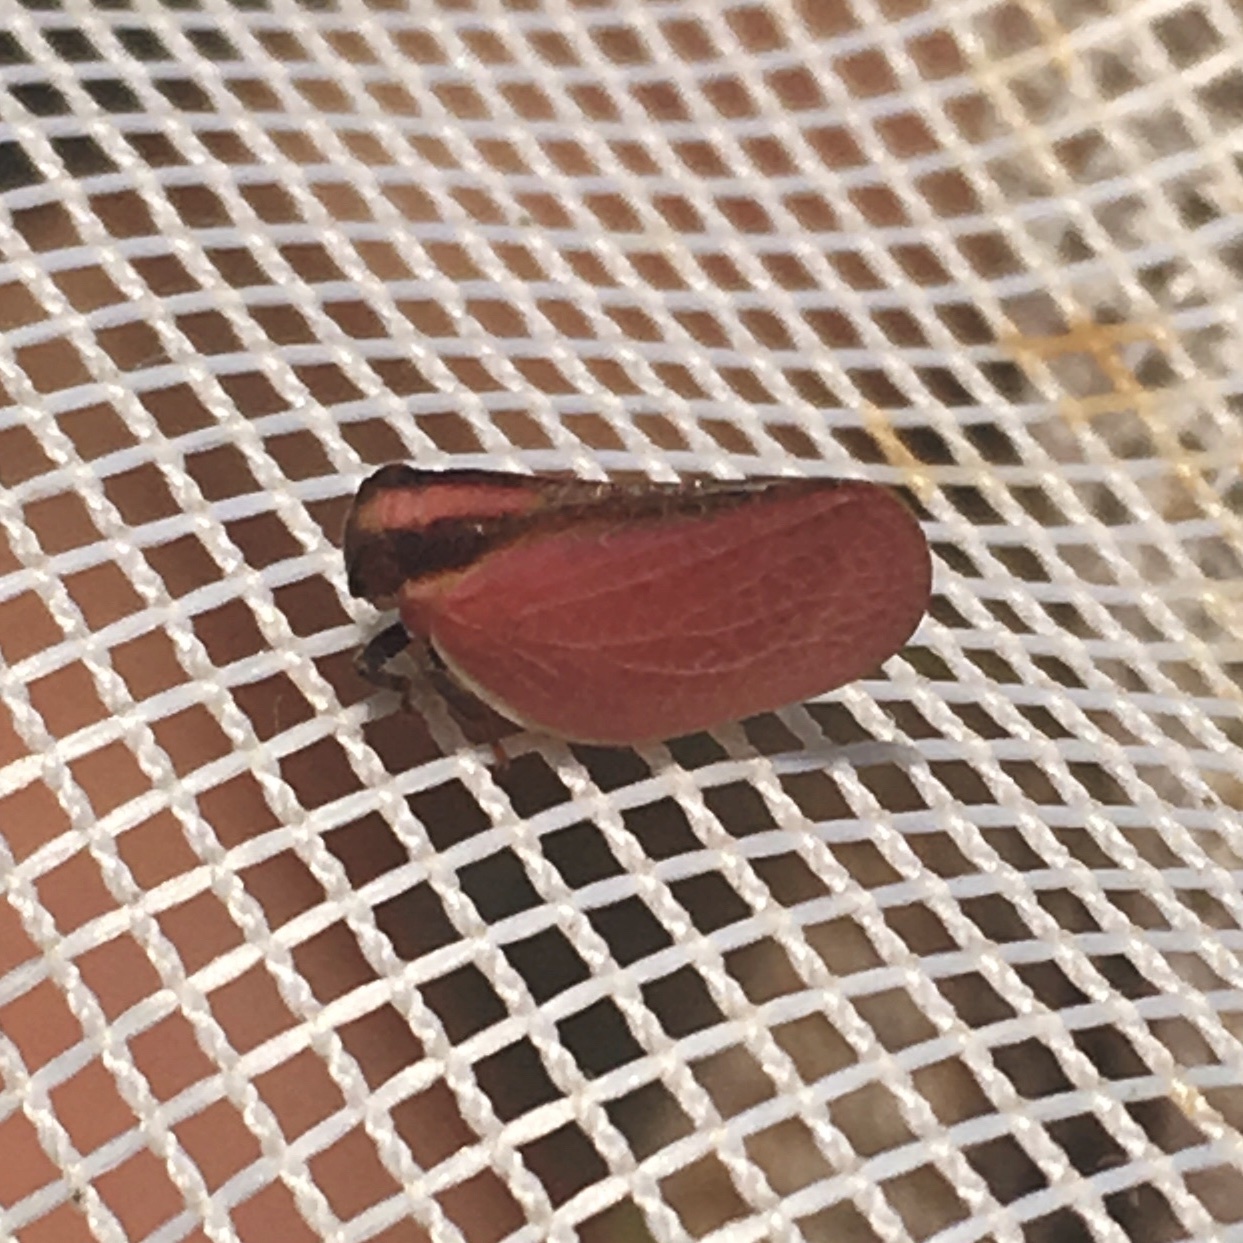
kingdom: Animalia
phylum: Arthropoda
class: Insecta
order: Hemiptera
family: Acanaloniidae
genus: Acanalonia
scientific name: Acanalonia bivittata
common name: Two-striped planthopper
